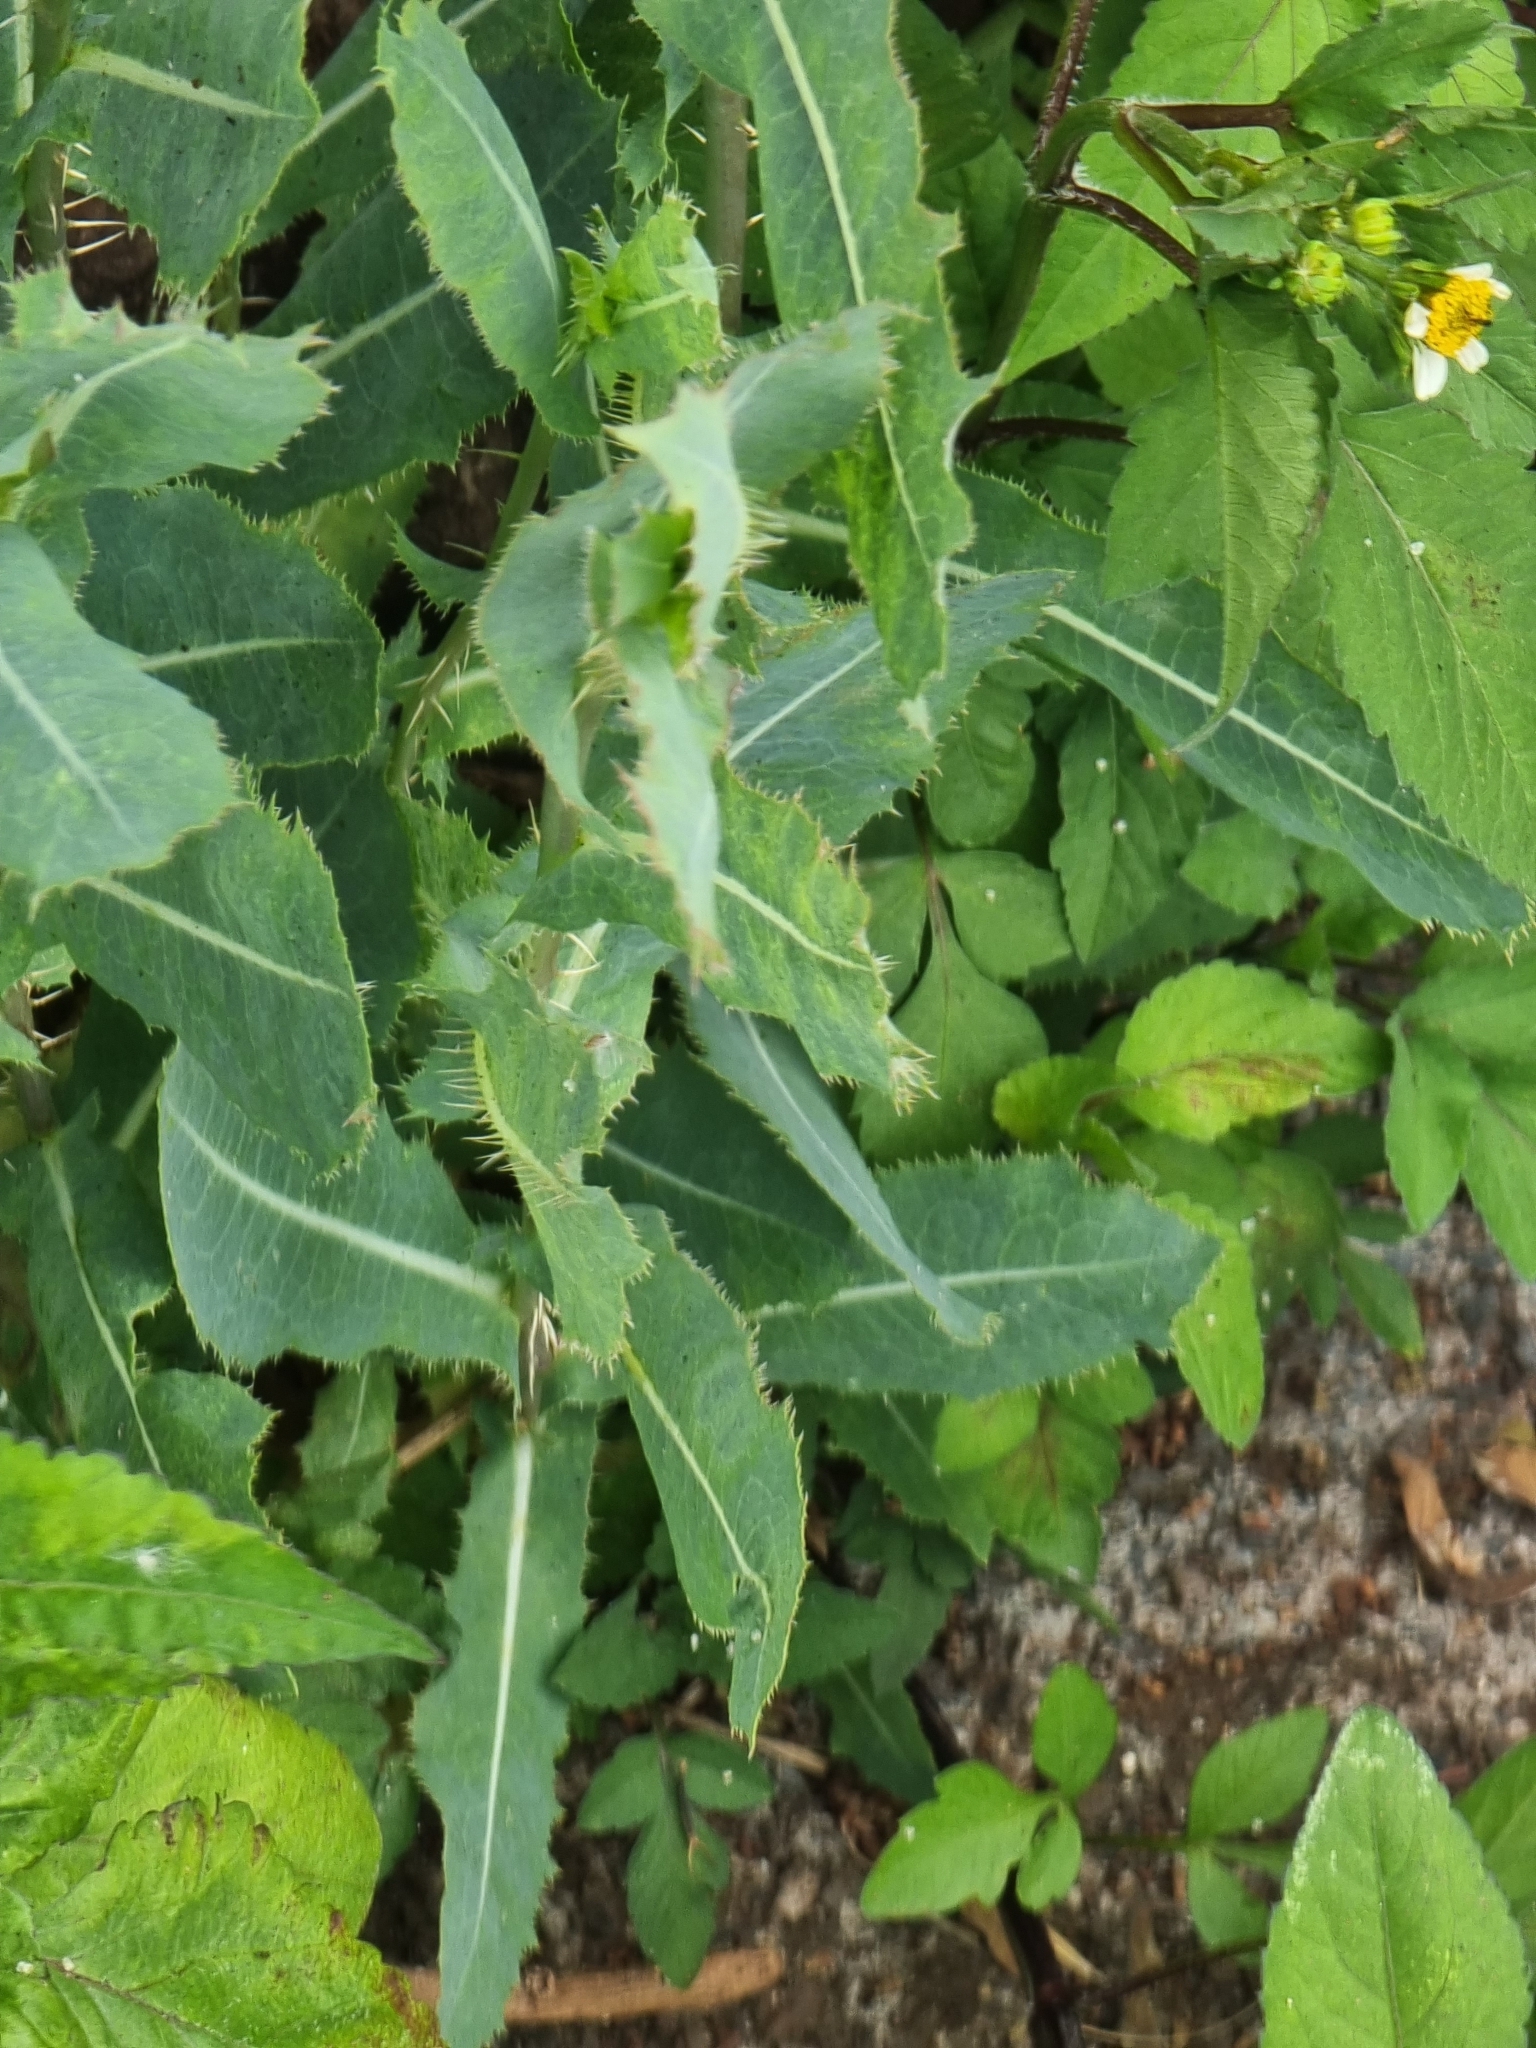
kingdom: Plantae
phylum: Tracheophyta
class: Magnoliopsida
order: Asterales
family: Asteraceae
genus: Lactuca
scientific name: Lactuca serriola
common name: Prickly lettuce
